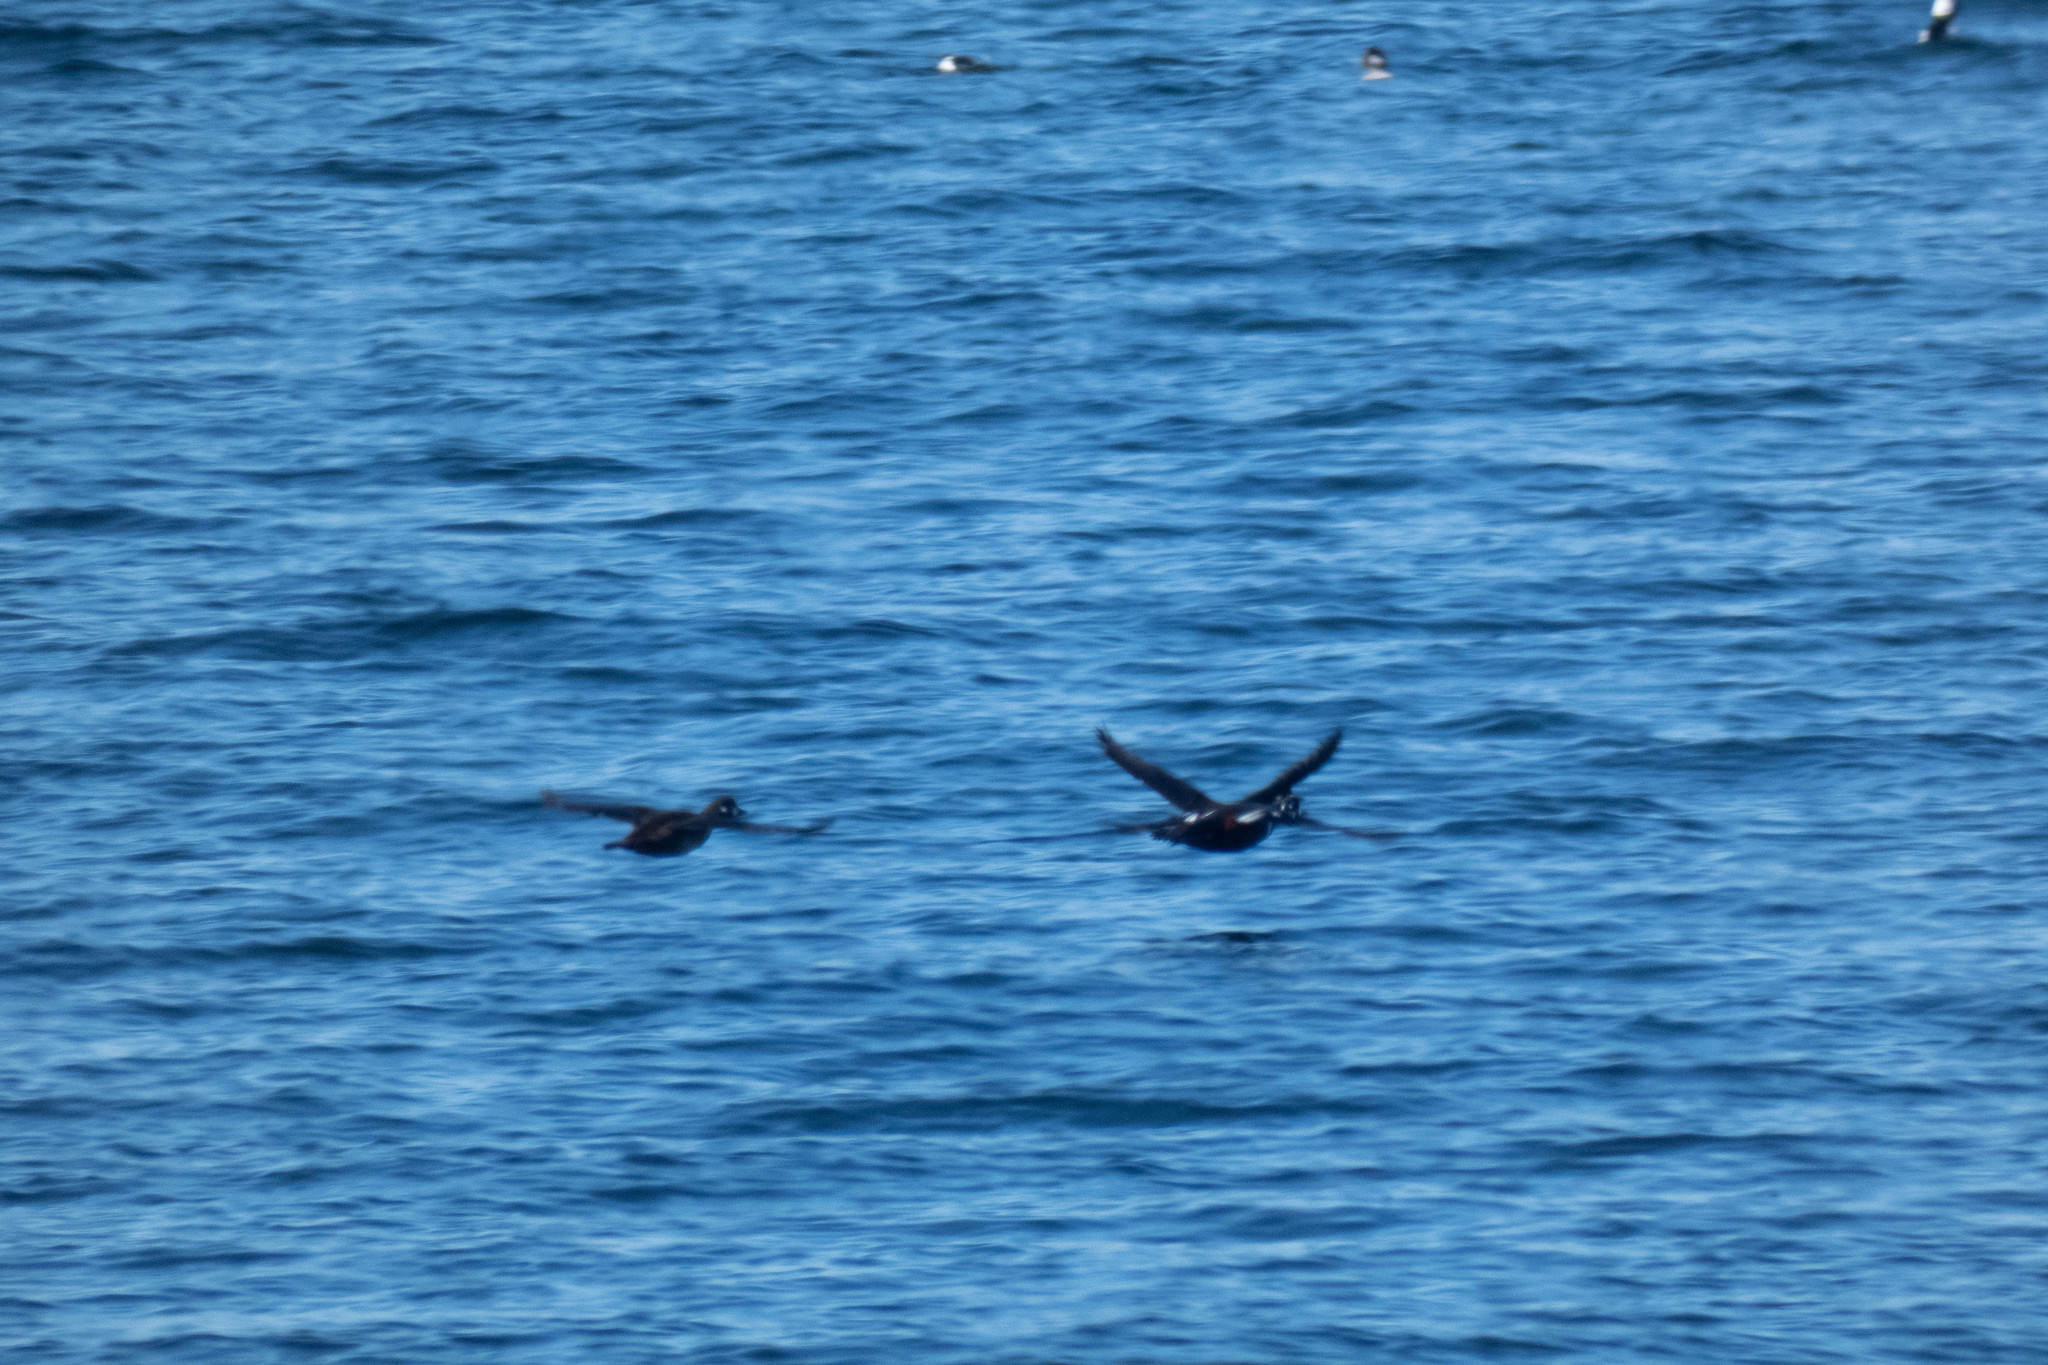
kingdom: Animalia
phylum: Chordata
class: Aves
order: Anseriformes
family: Anatidae
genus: Histrionicus
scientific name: Histrionicus histrionicus
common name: Harlequin duck
